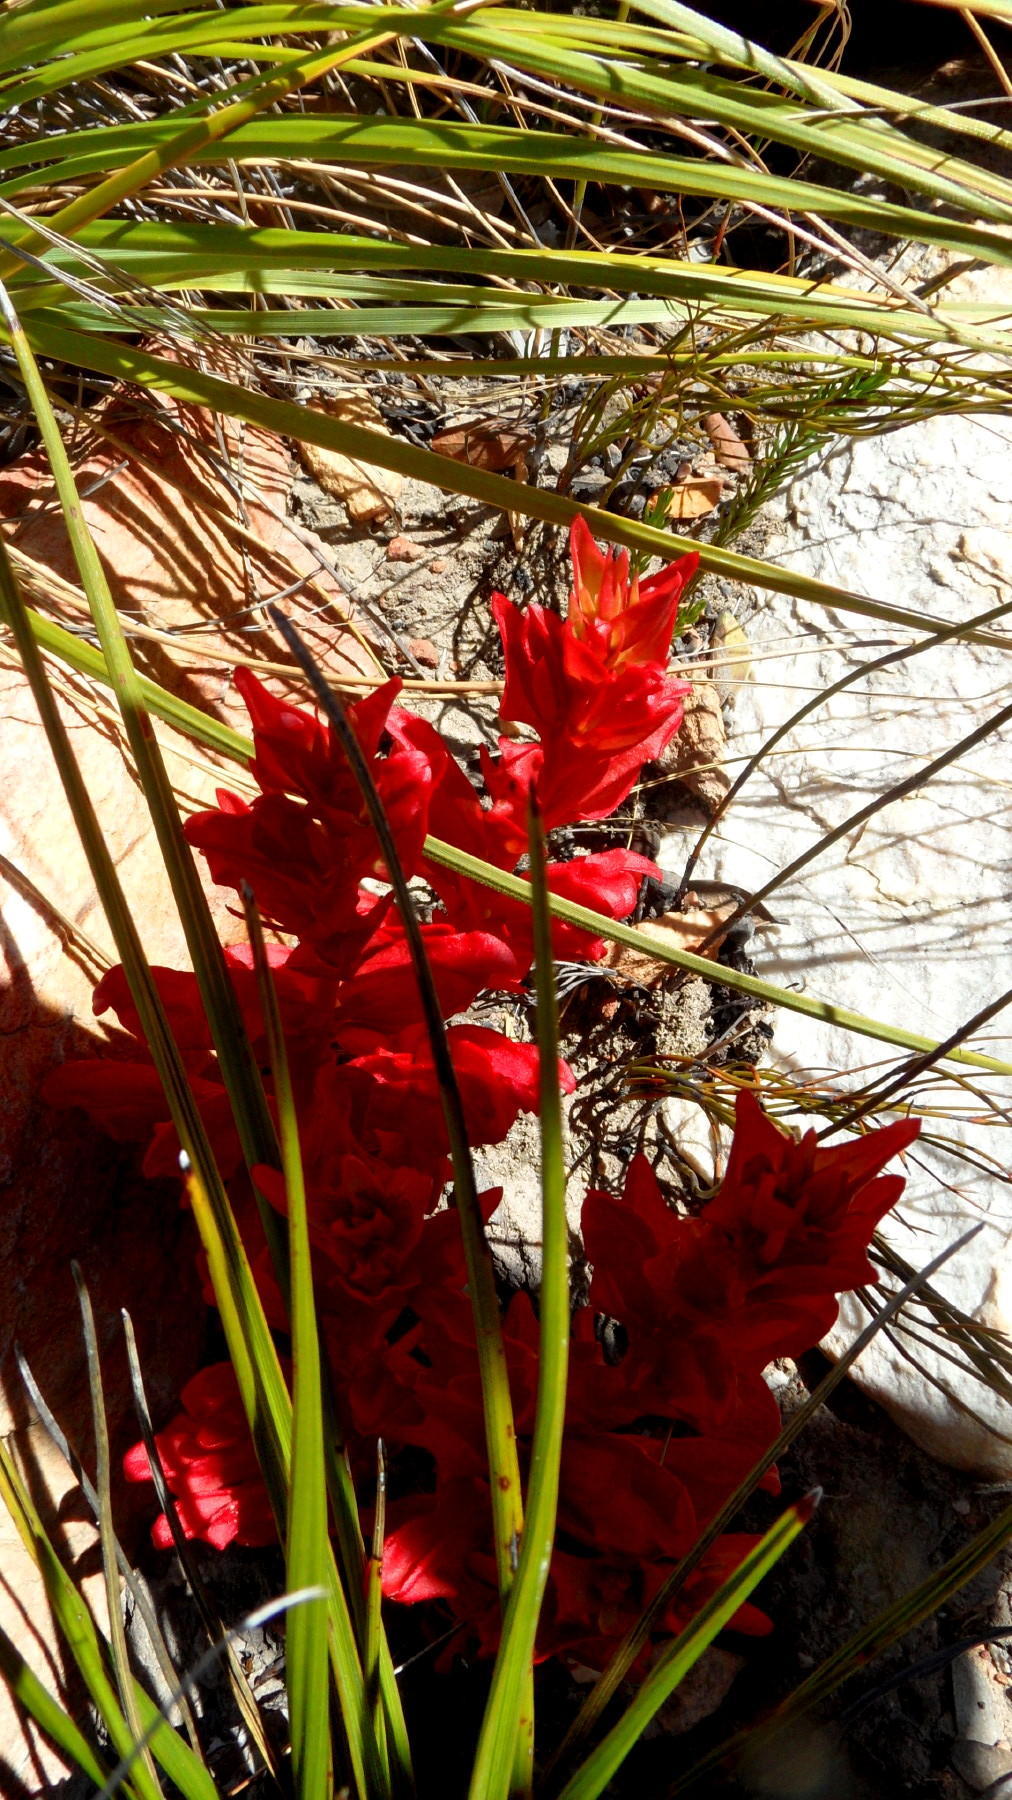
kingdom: Plantae
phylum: Tracheophyta
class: Magnoliopsida
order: Lamiales
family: Orobanchaceae
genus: Harveya
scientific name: Harveya bolusii
